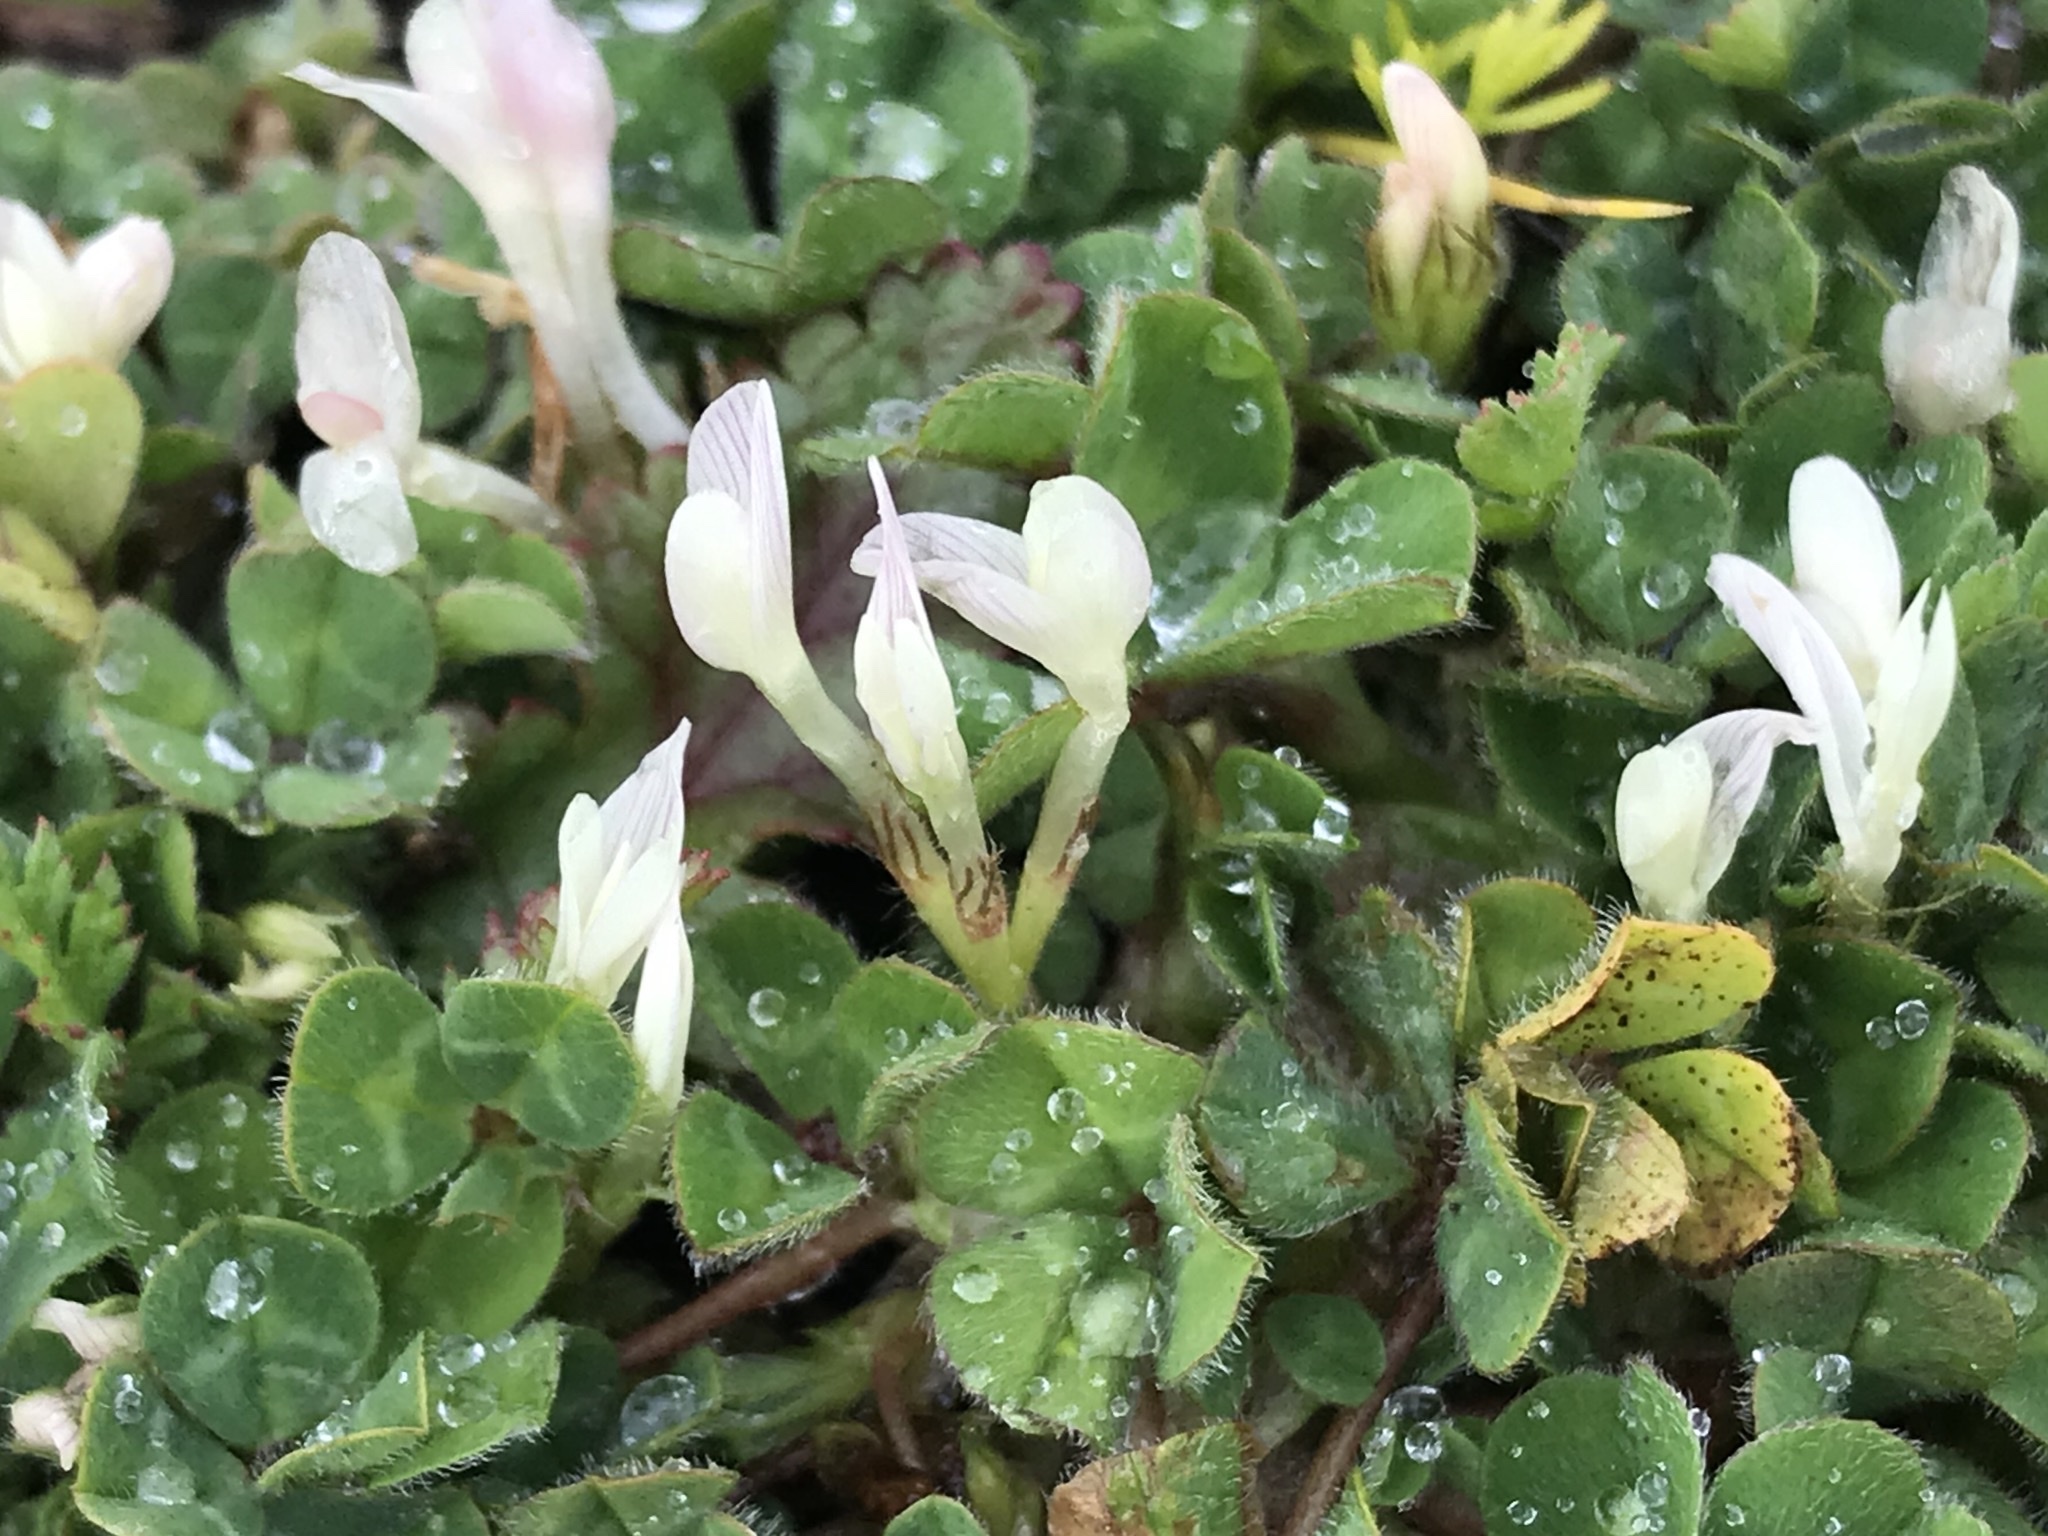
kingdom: Plantae
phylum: Tracheophyta
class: Magnoliopsida
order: Fabales
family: Fabaceae
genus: Trifolium
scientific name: Trifolium subterraneum
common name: Subterranean clover
